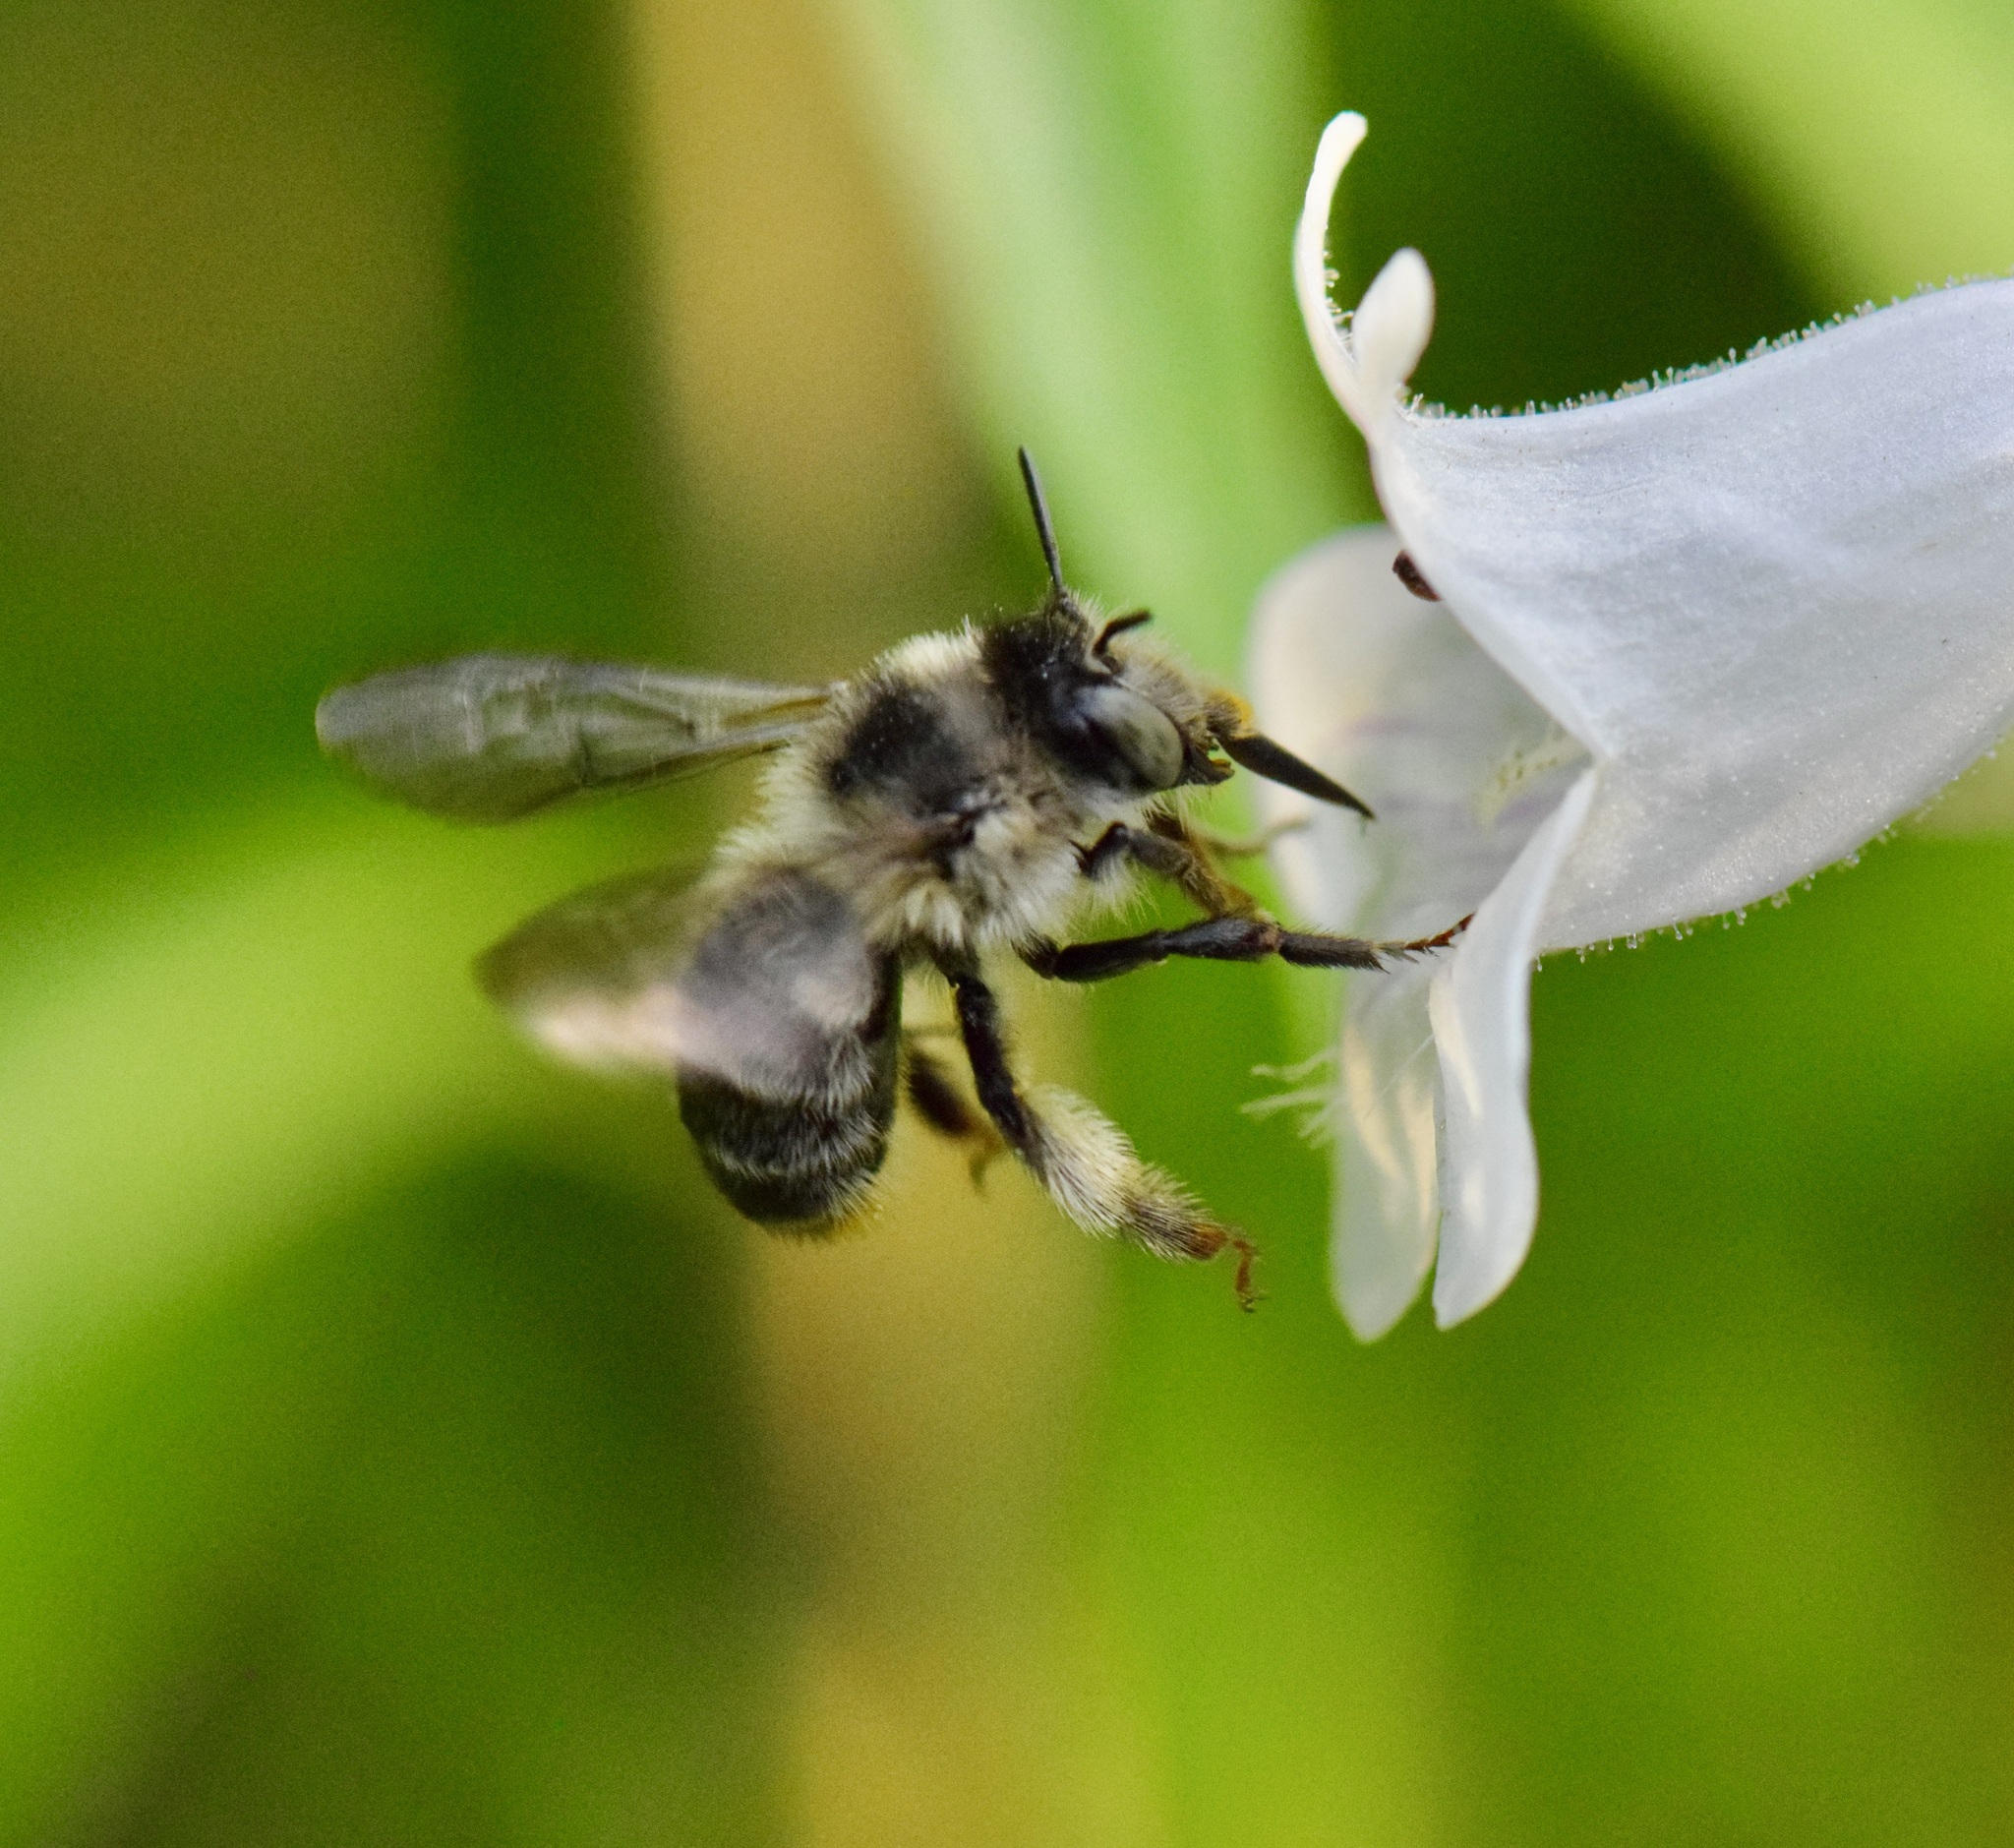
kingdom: Animalia
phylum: Arthropoda
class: Insecta
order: Hymenoptera
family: Apidae
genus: Anthophora
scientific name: Anthophora terminalis
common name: Orange-tipped wood-digger bee
